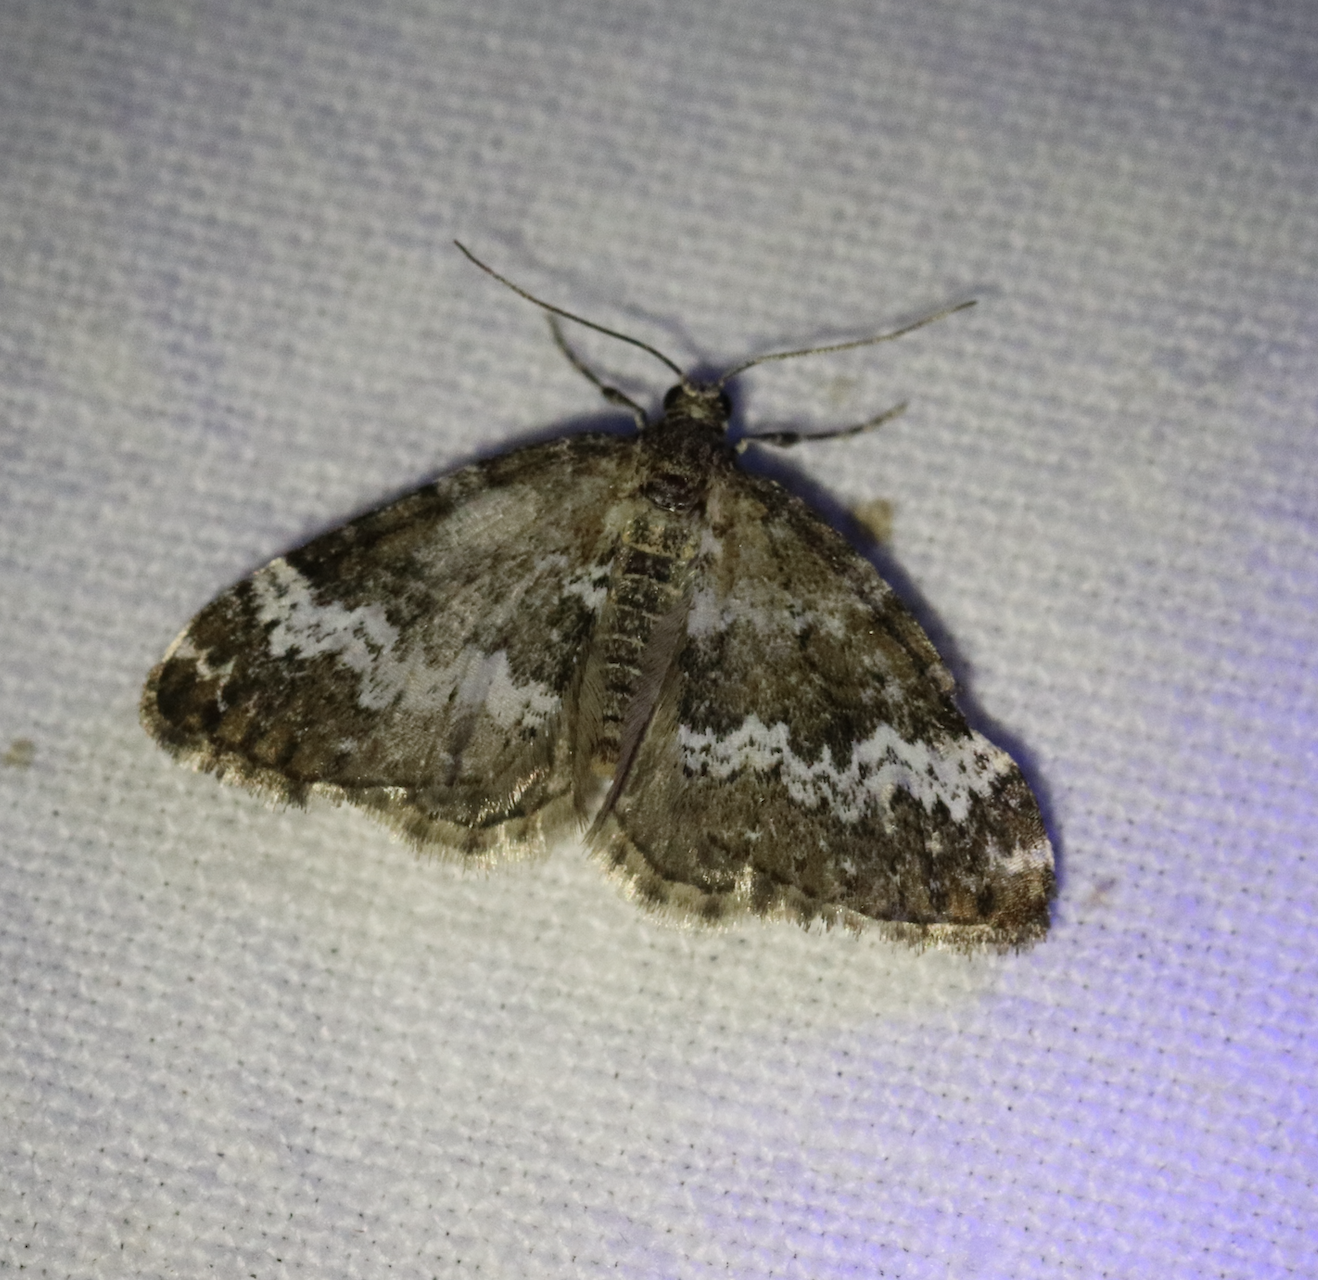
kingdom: Animalia
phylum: Arthropoda
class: Insecta
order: Lepidoptera
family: Geometridae
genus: Perizoma
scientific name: Perizoma alchemillata
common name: Small rivulet
